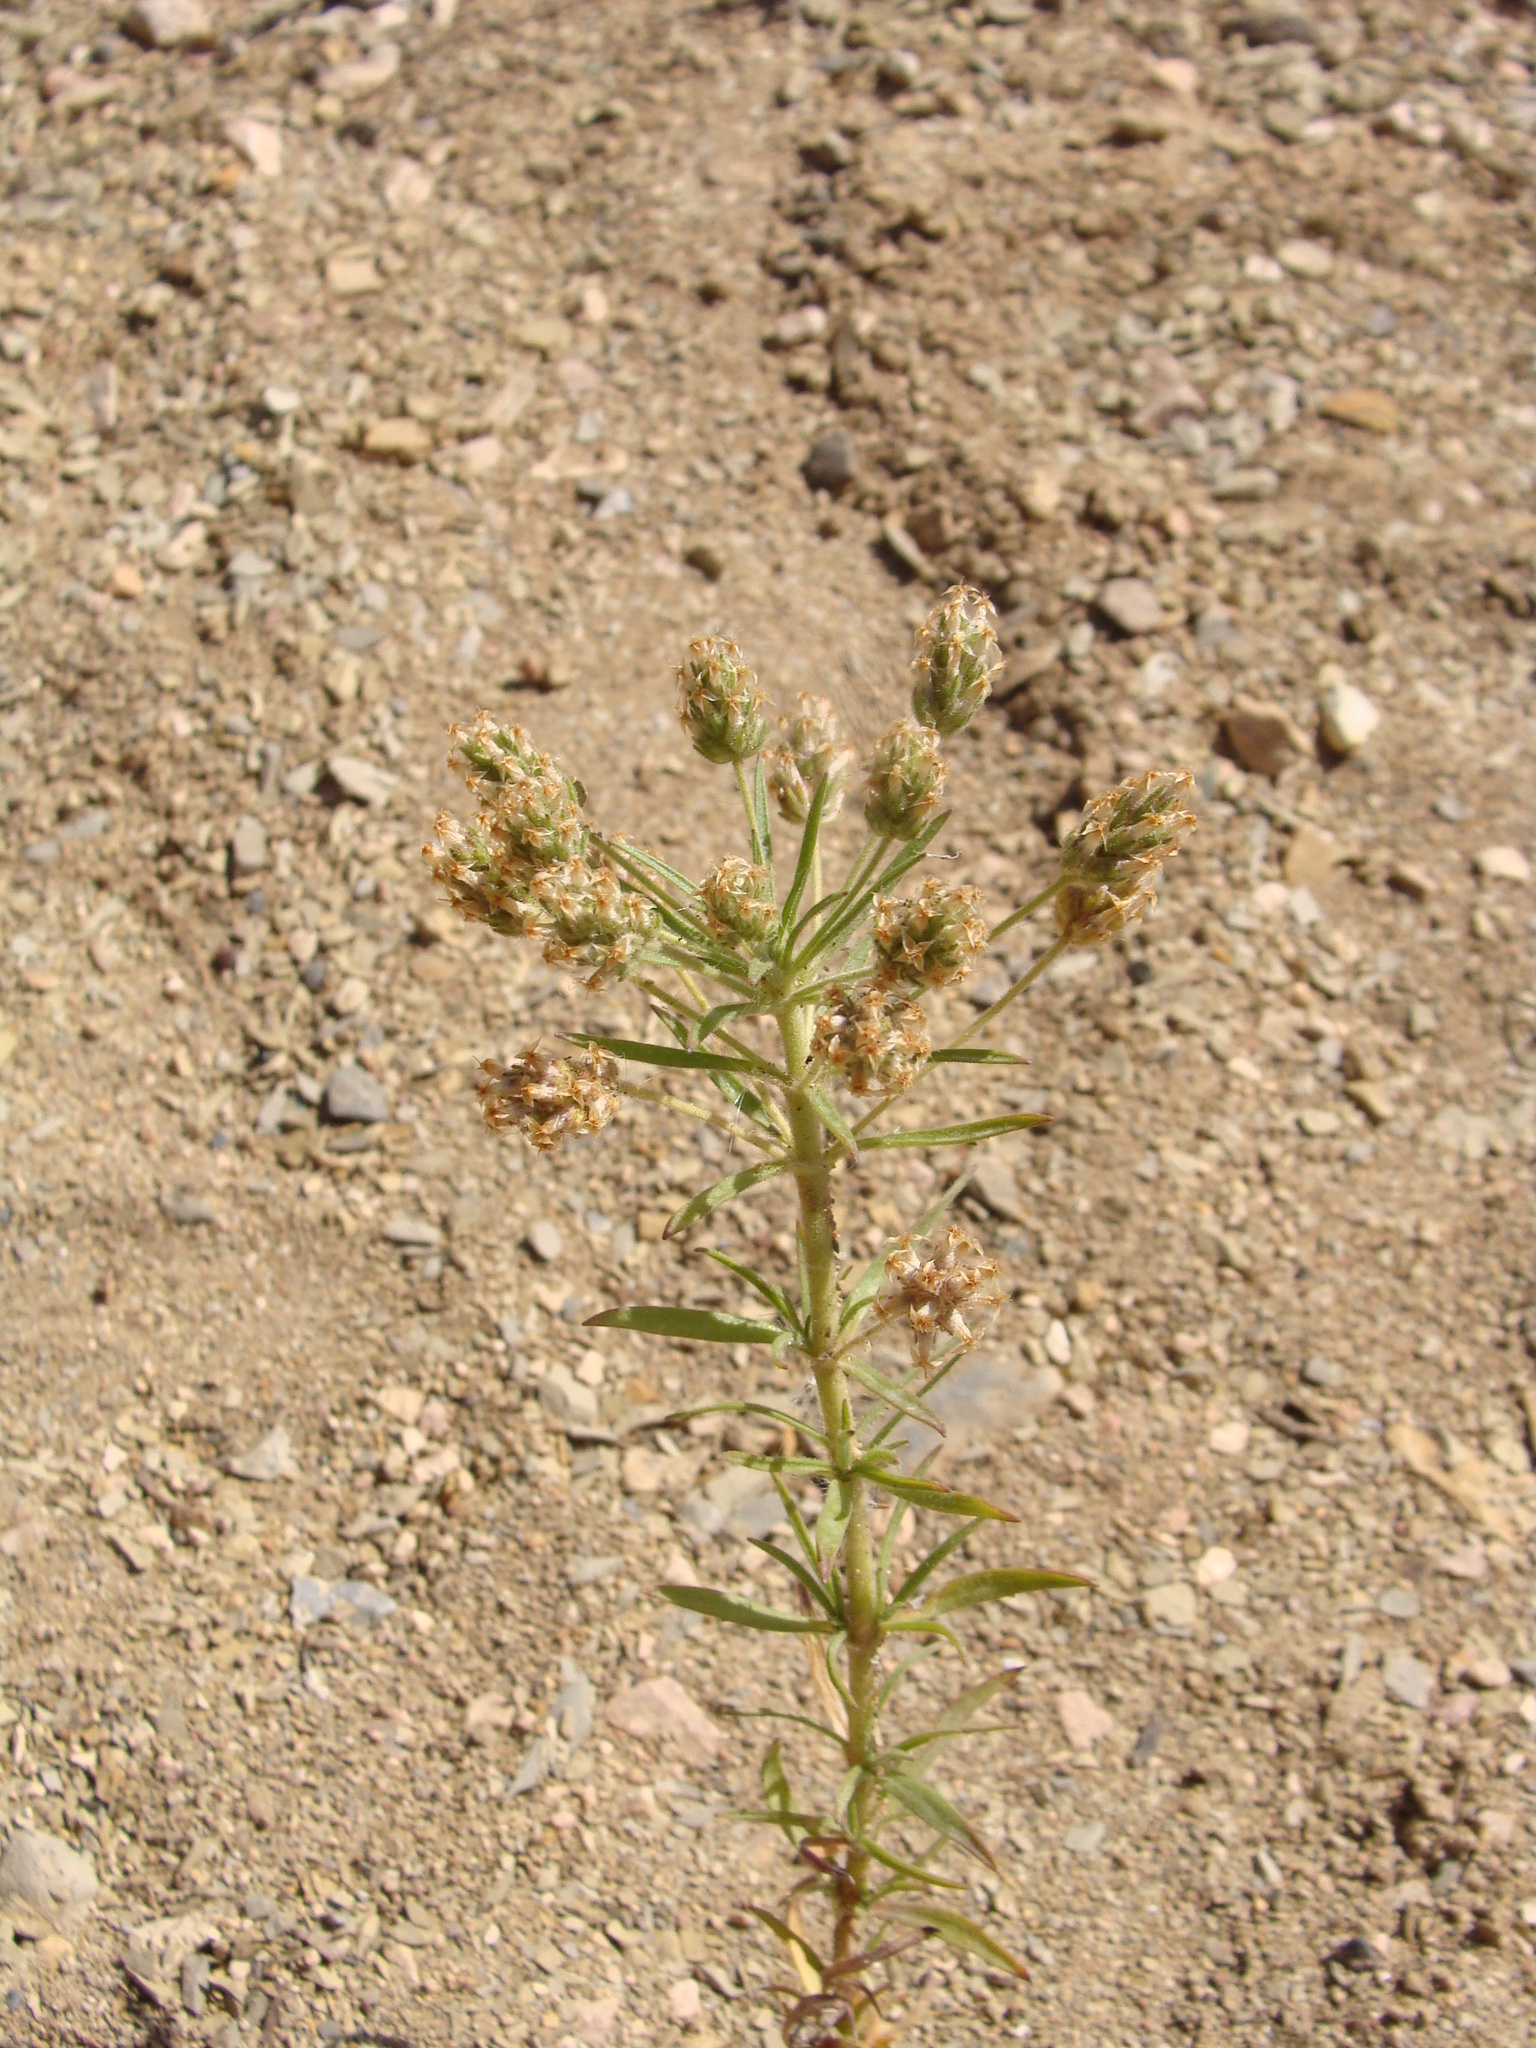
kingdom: Plantae
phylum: Tracheophyta
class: Magnoliopsida
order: Lamiales
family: Plantaginaceae
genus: Plantago
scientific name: Plantago afra
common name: Glandular plantain
